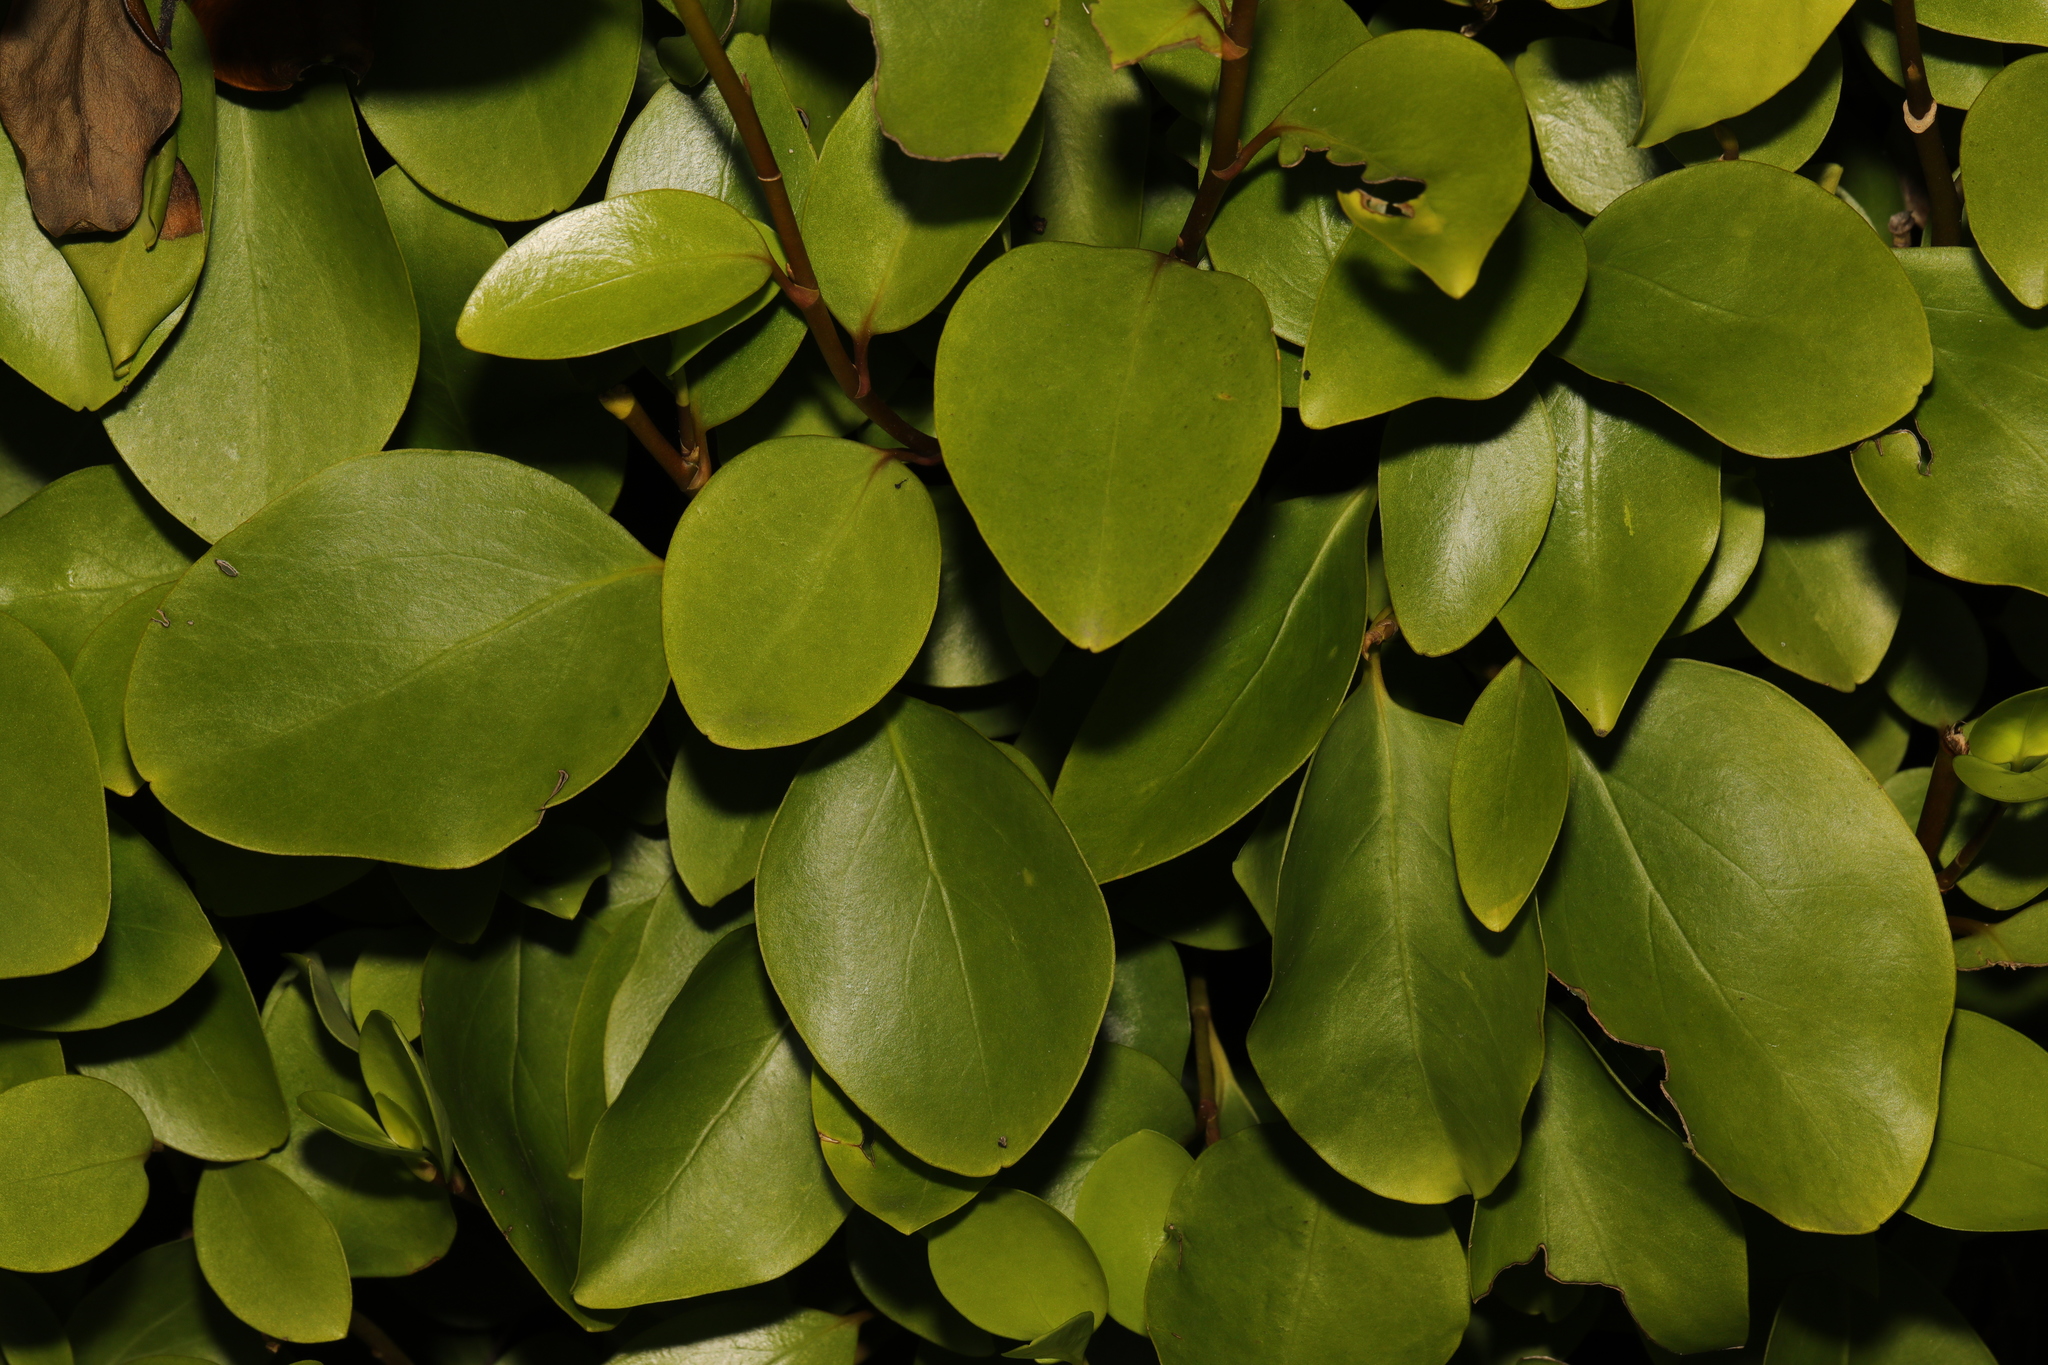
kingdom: Plantae
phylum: Tracheophyta
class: Magnoliopsida
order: Apiales
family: Griseliniaceae
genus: Griselinia
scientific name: Griselinia littoralis
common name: New zealand broadleaf
